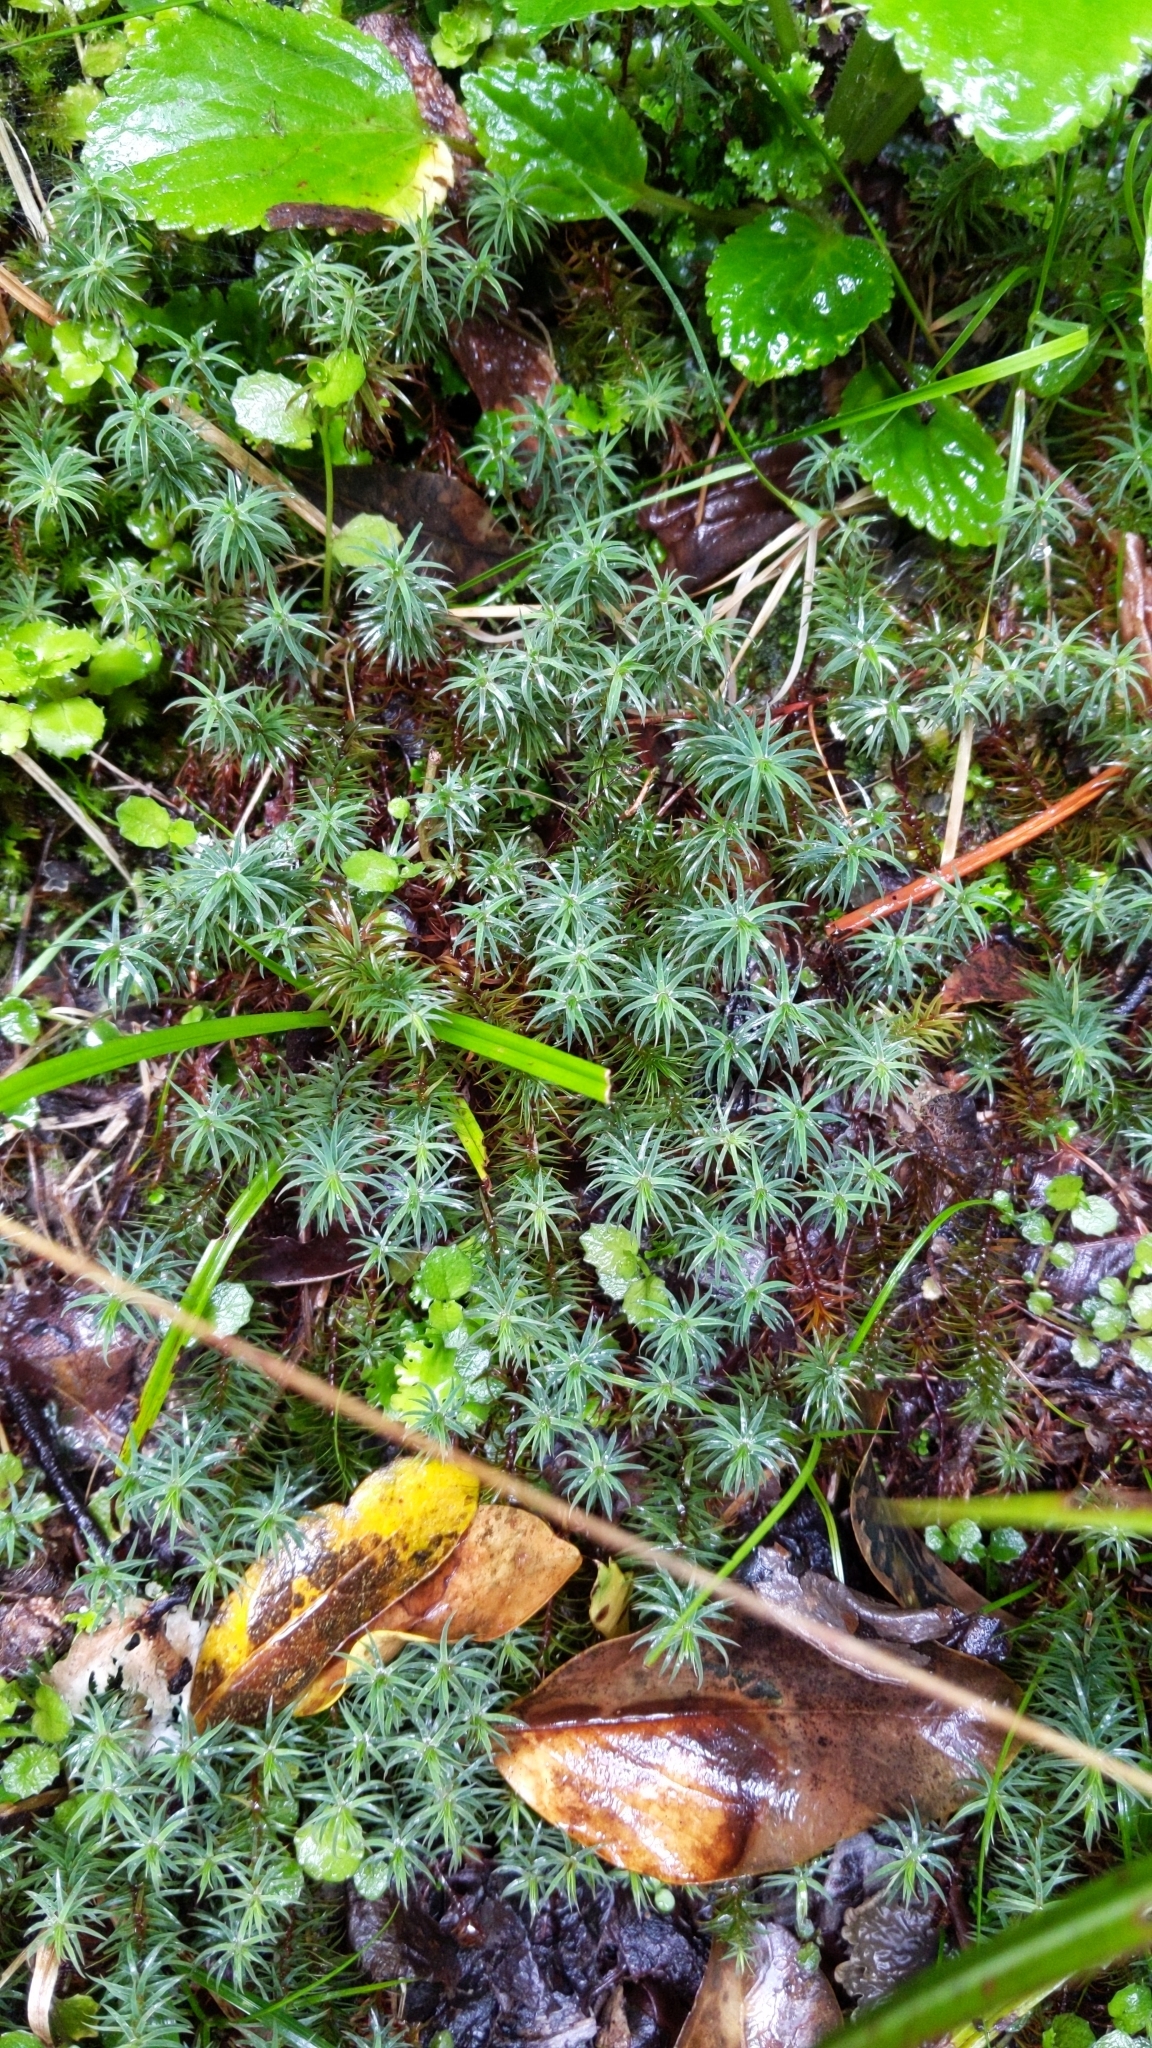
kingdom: Plantae
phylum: Bryophyta
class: Polytrichopsida
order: Polytrichales
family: Polytrichaceae
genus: Polytrichadelphus
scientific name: Polytrichadelphus magellanicus
